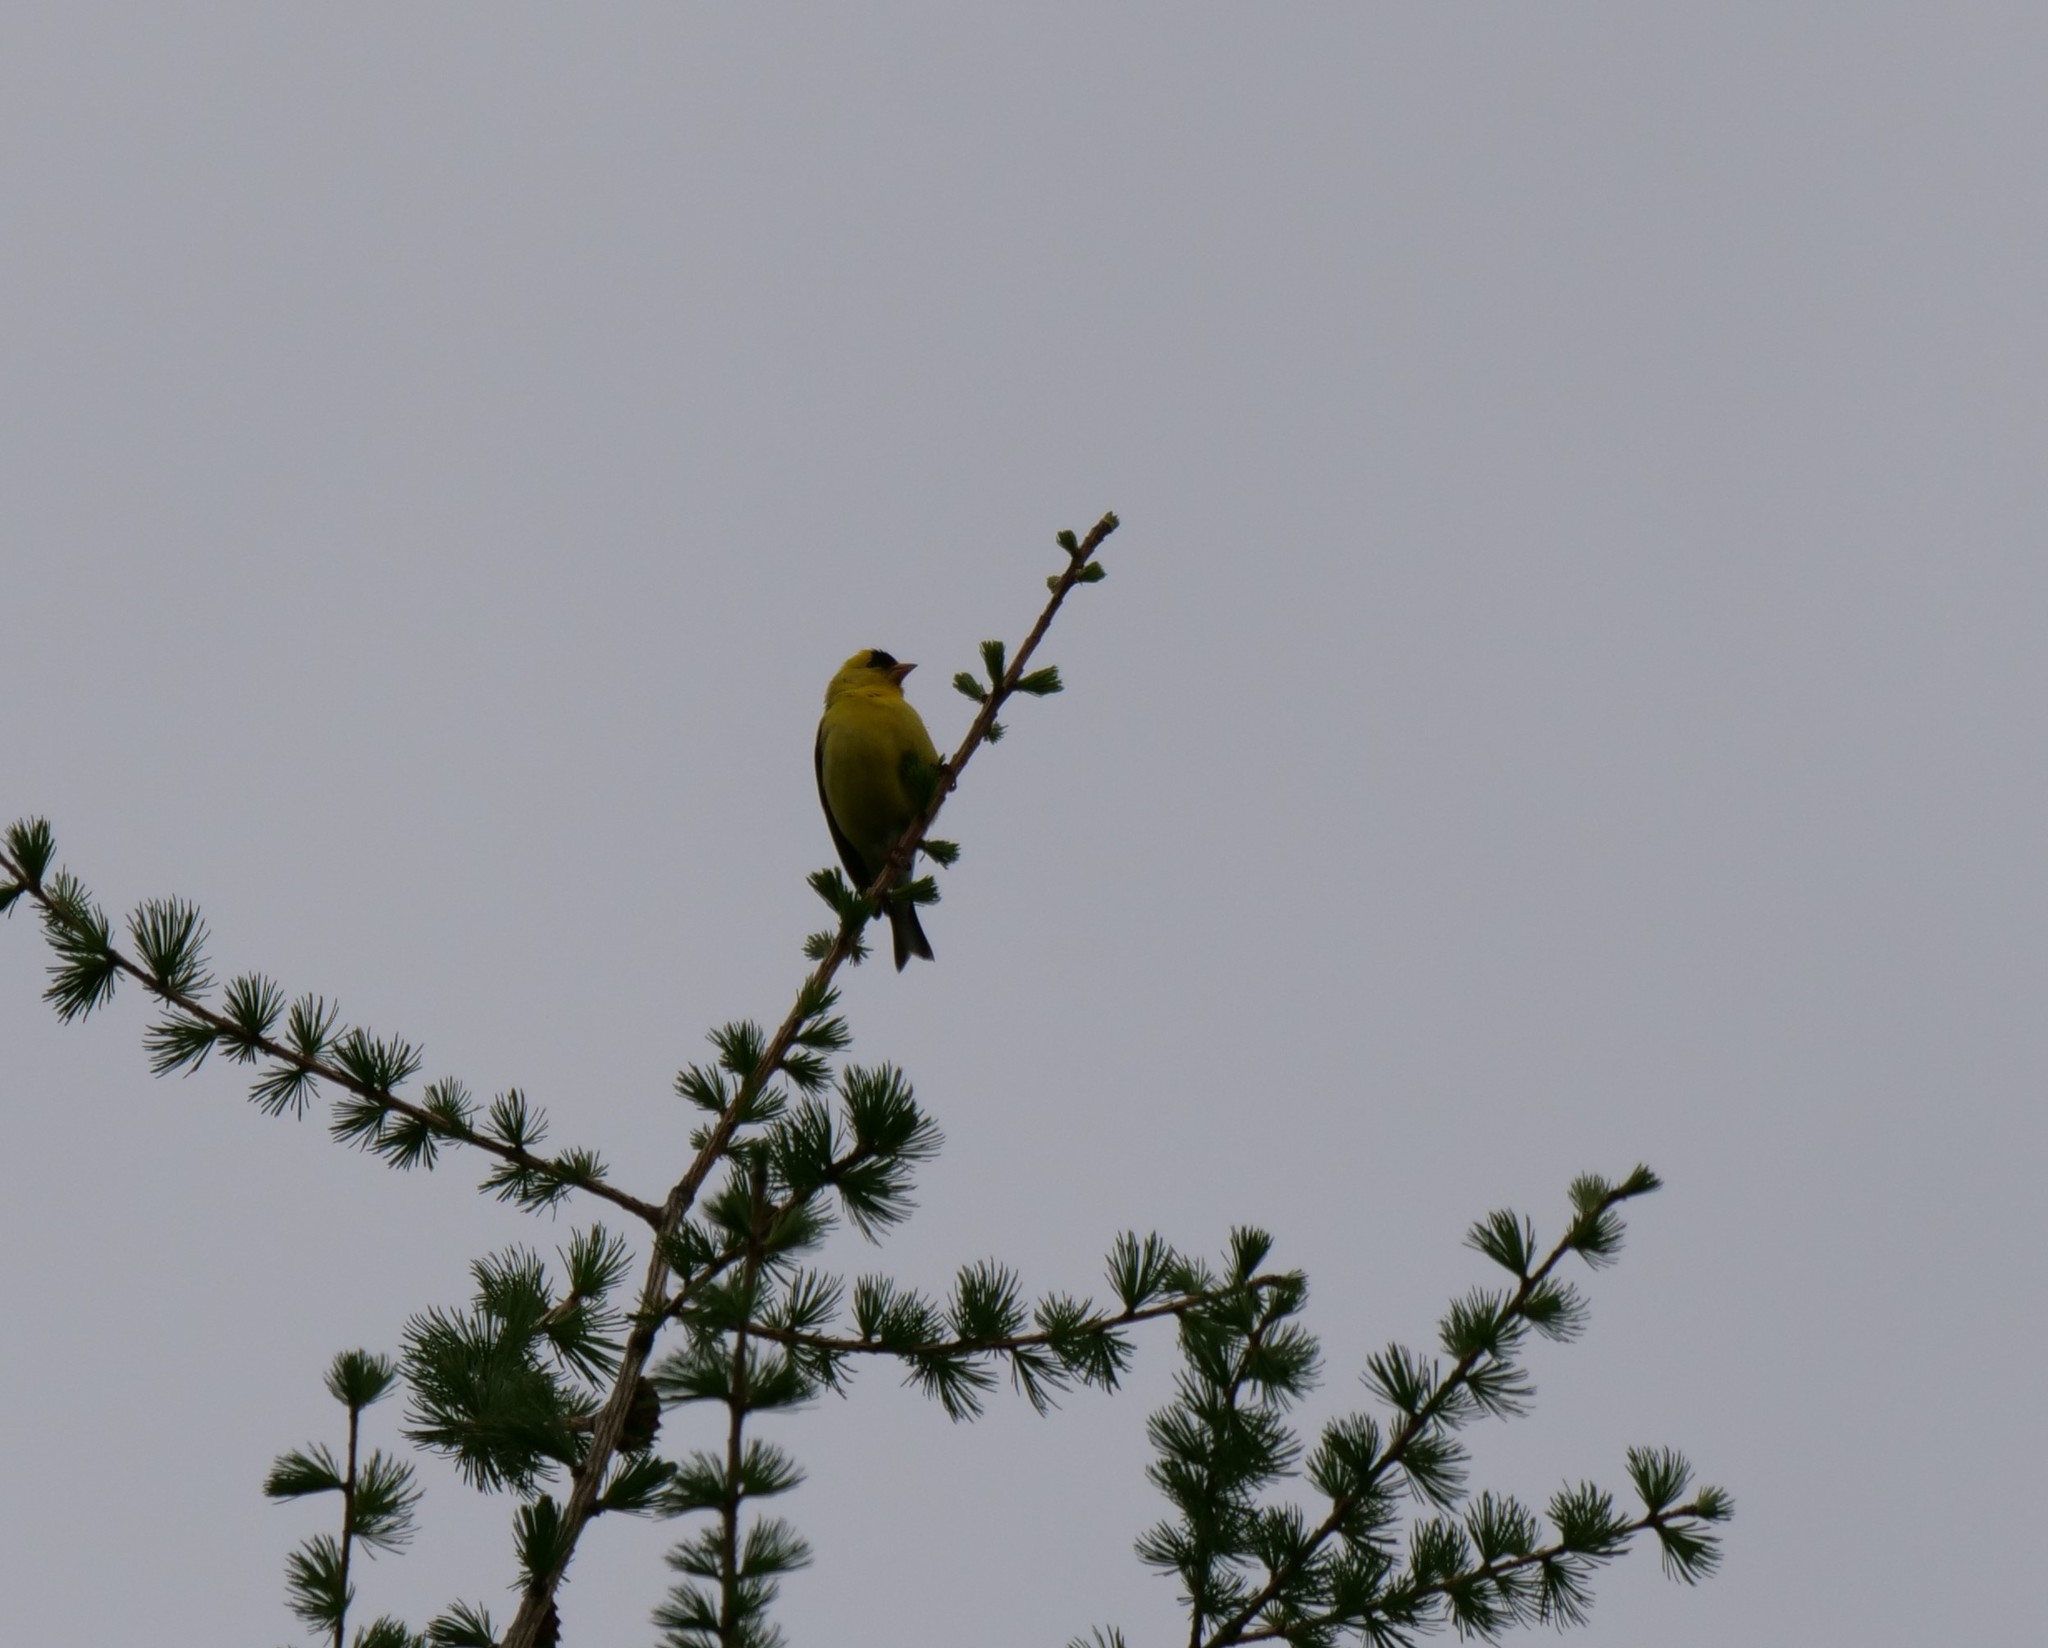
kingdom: Animalia
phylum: Chordata
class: Aves
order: Passeriformes
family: Fringillidae
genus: Spinus
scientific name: Spinus tristis
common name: American goldfinch
